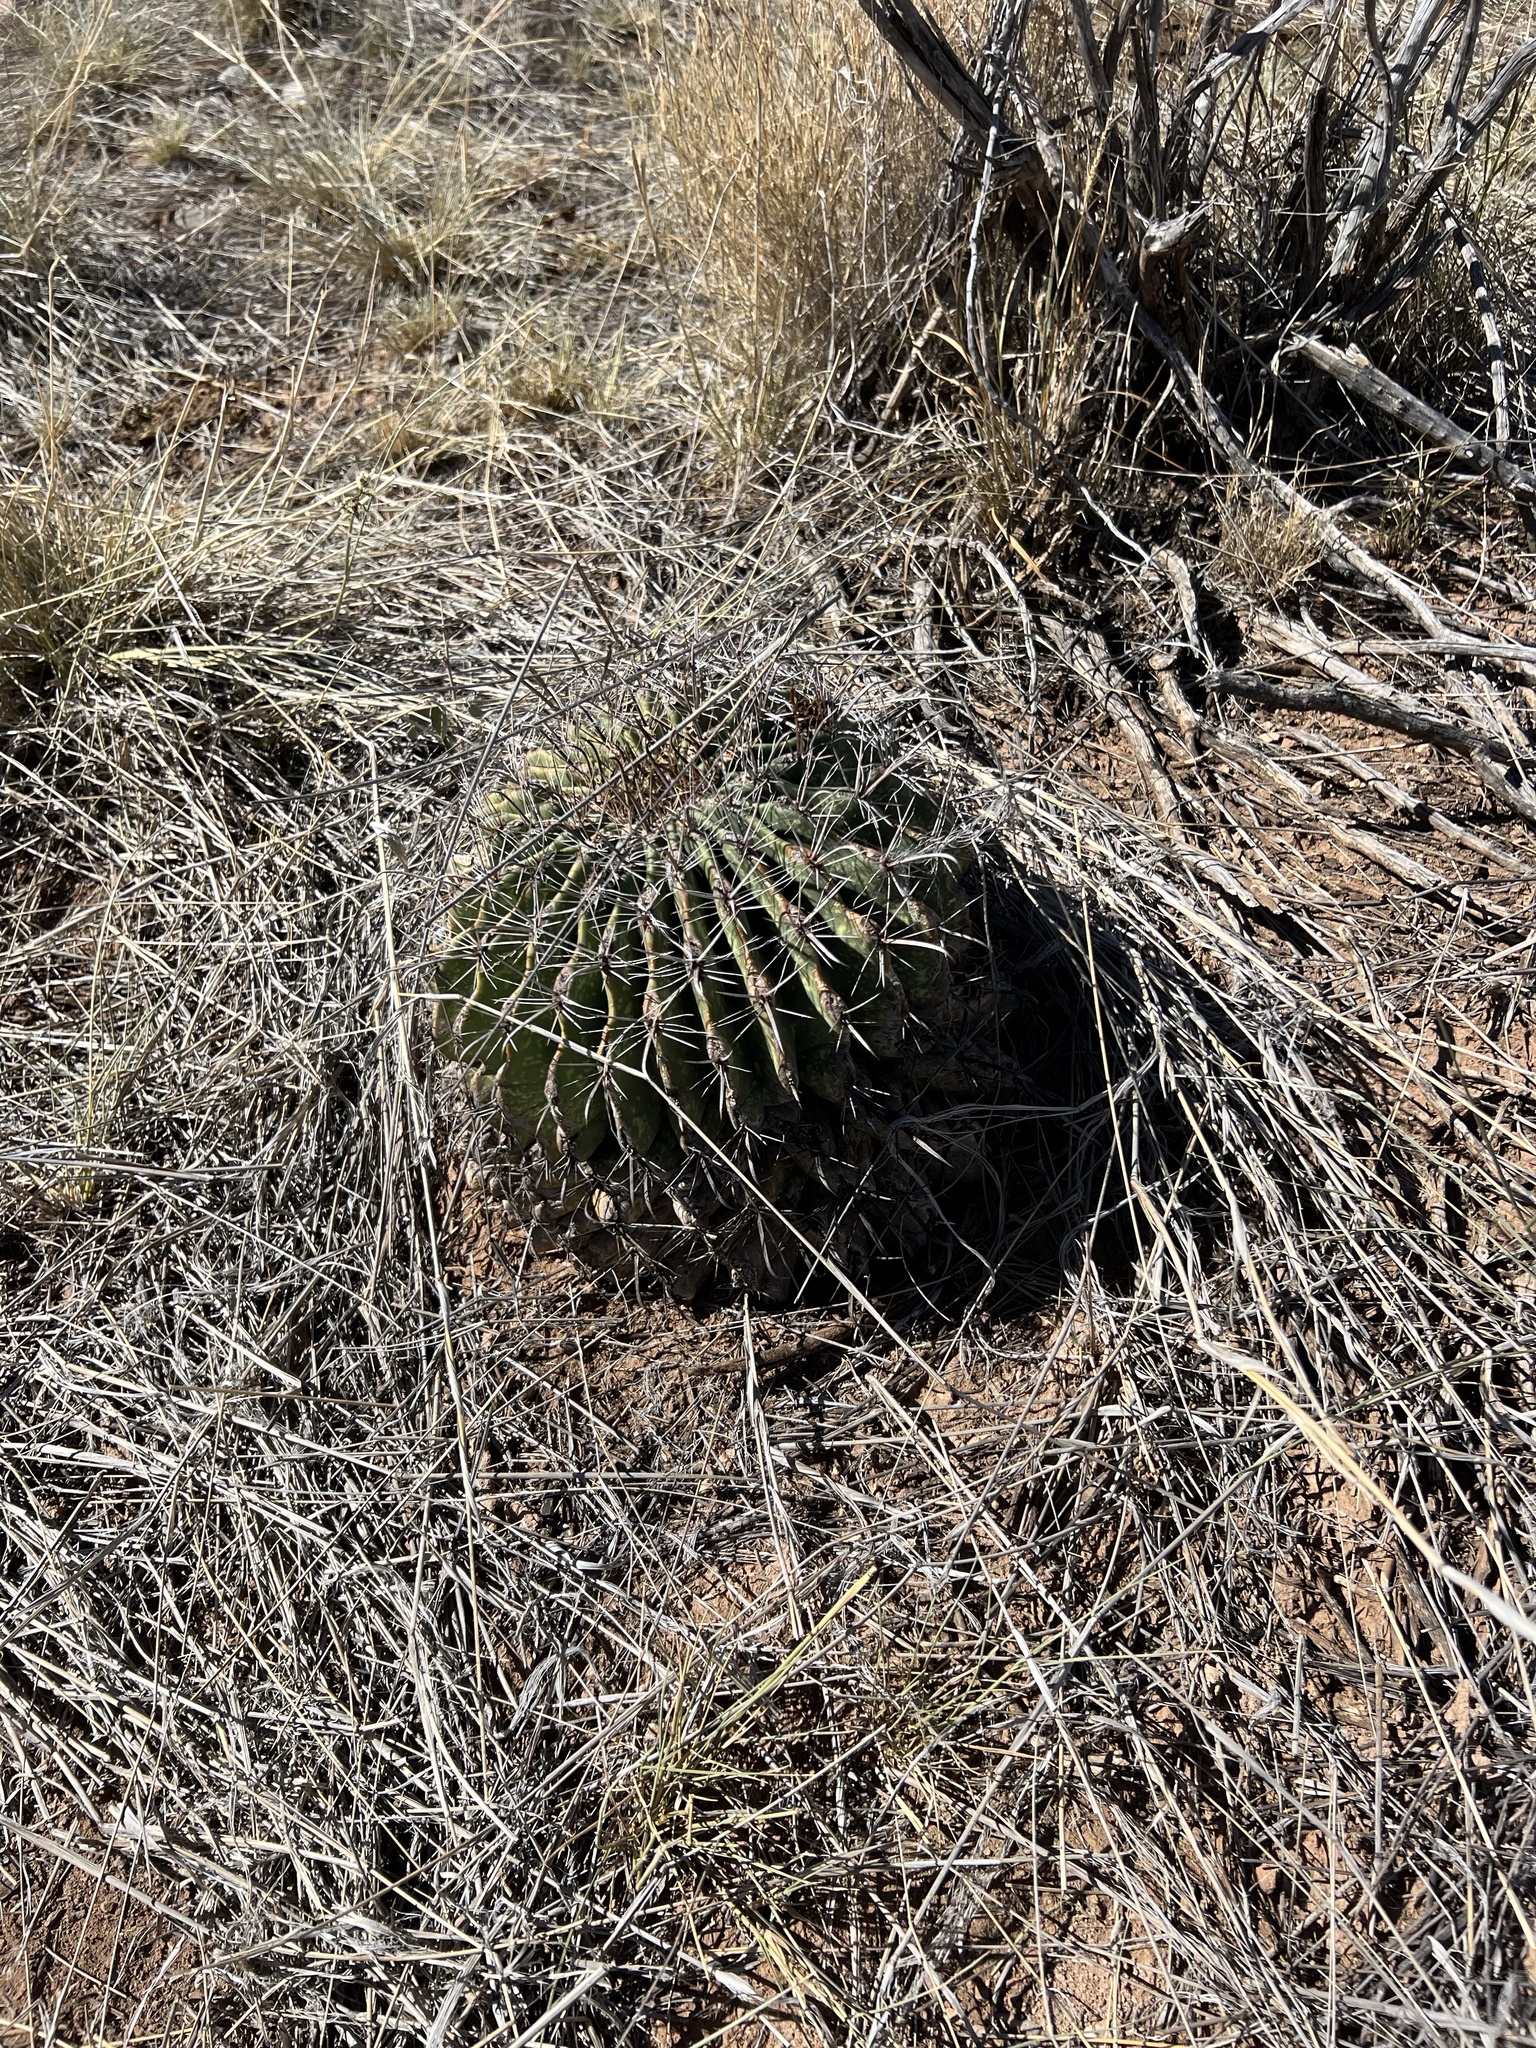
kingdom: Plantae
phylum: Tracheophyta
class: Magnoliopsida
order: Caryophyllales
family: Cactaceae
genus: Ferocactus
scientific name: Ferocactus wislizeni
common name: Candy barrel cactus
